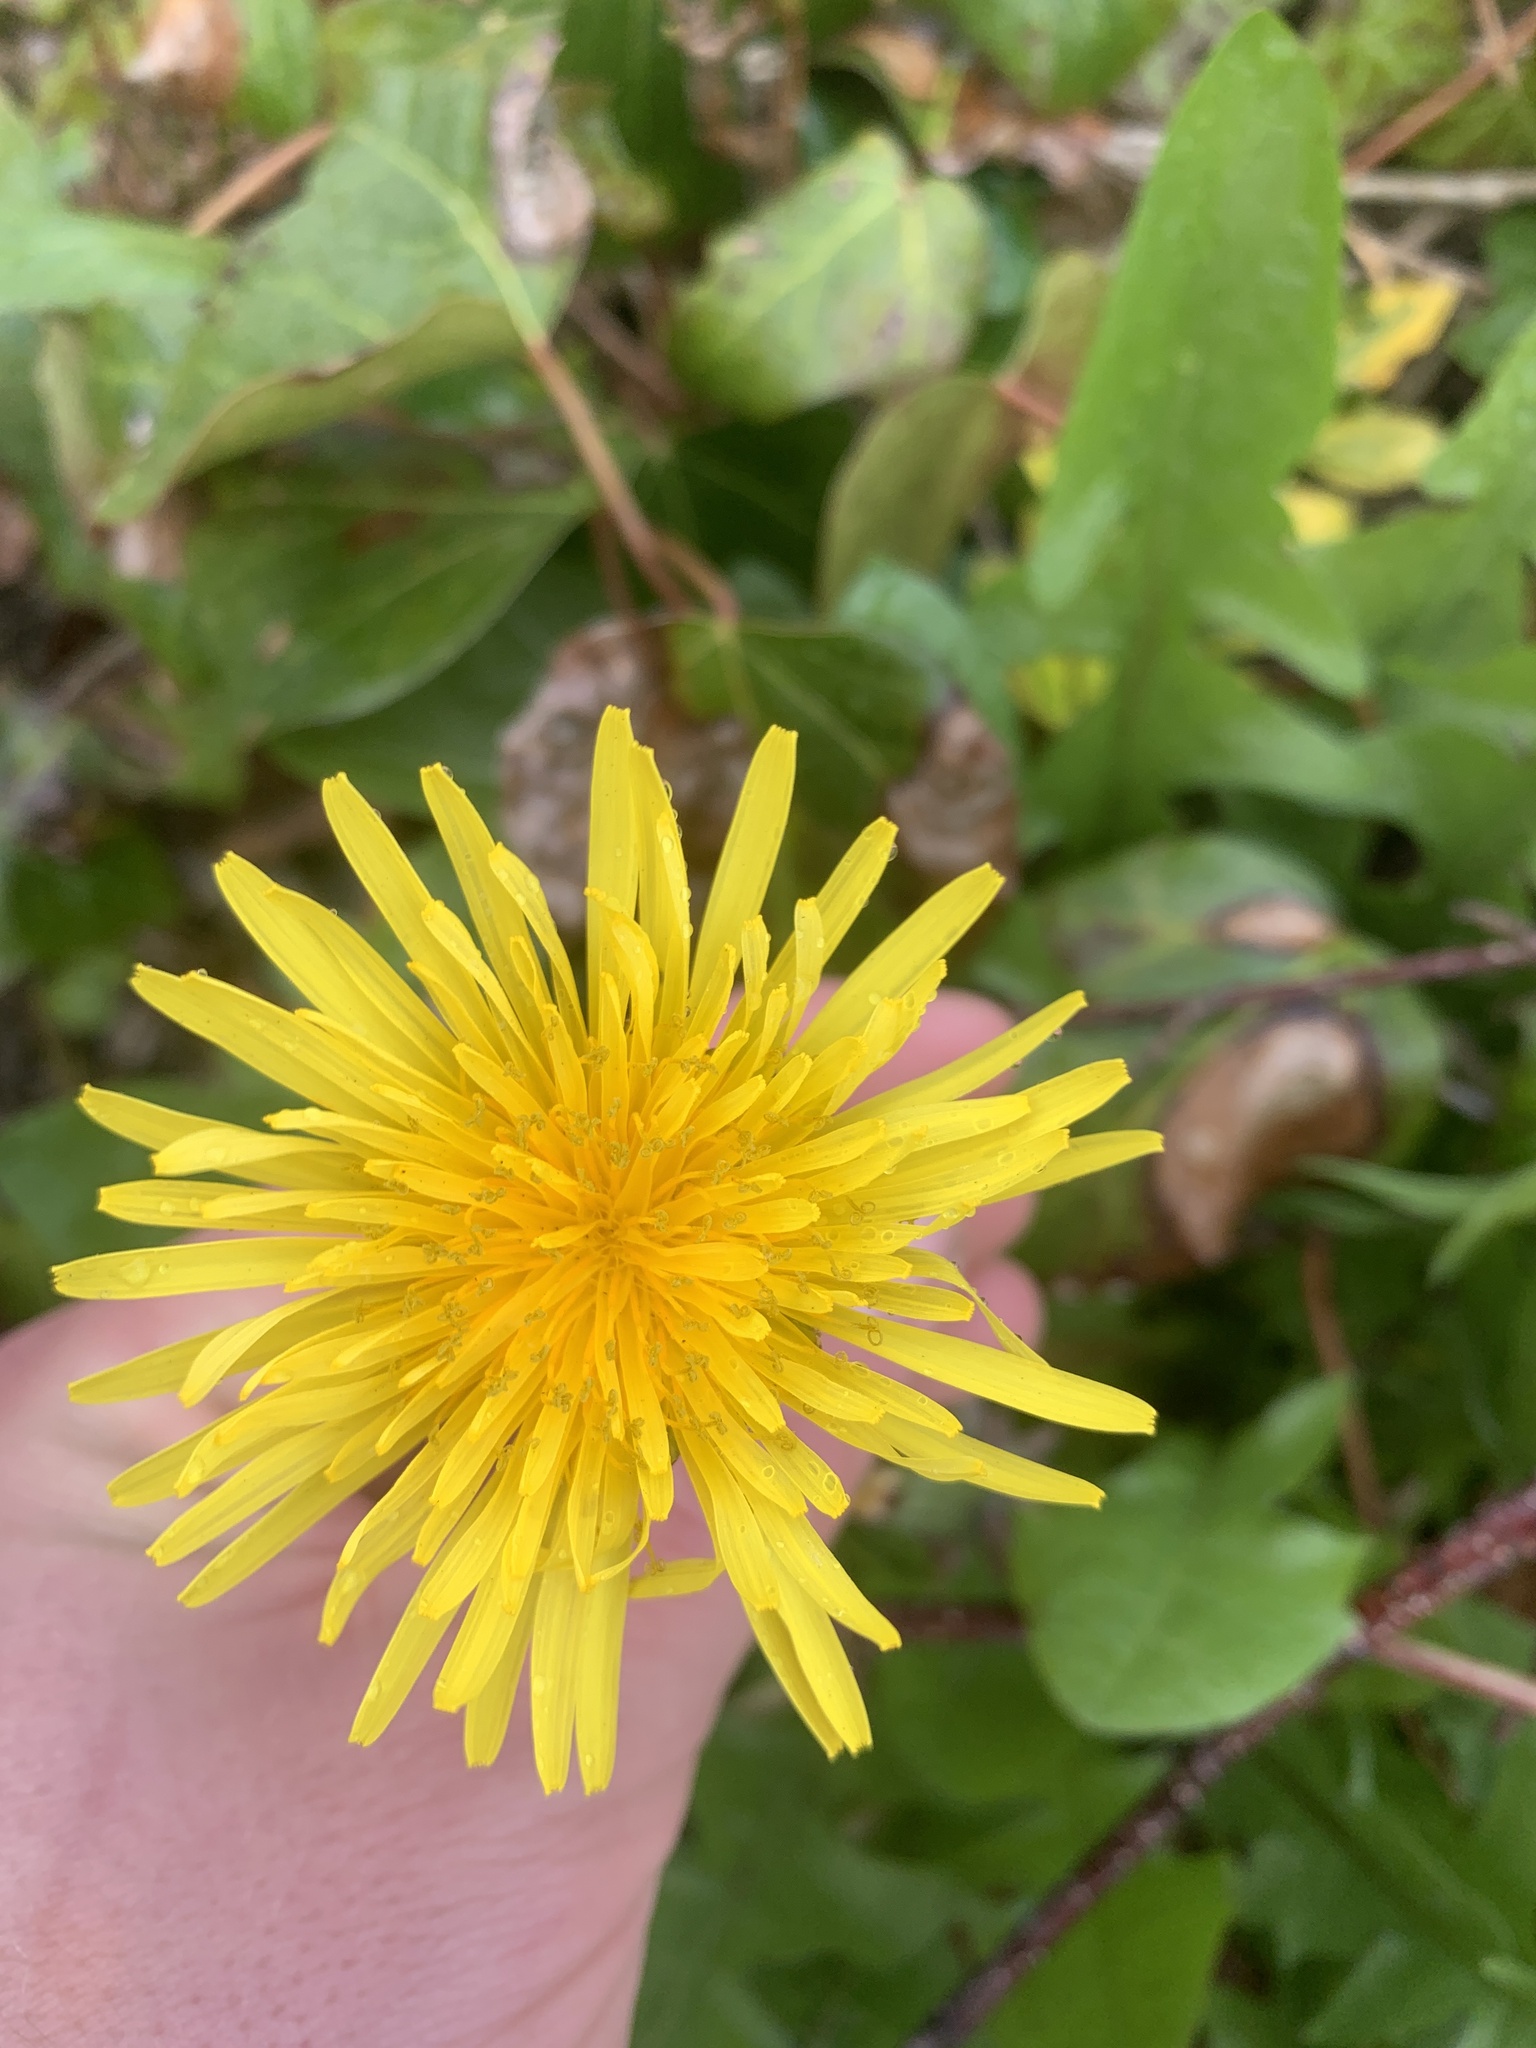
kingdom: Plantae
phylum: Tracheophyta
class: Magnoliopsida
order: Asterales
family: Asteraceae
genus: Taraxacum
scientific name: Taraxacum officinale
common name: Common dandelion
